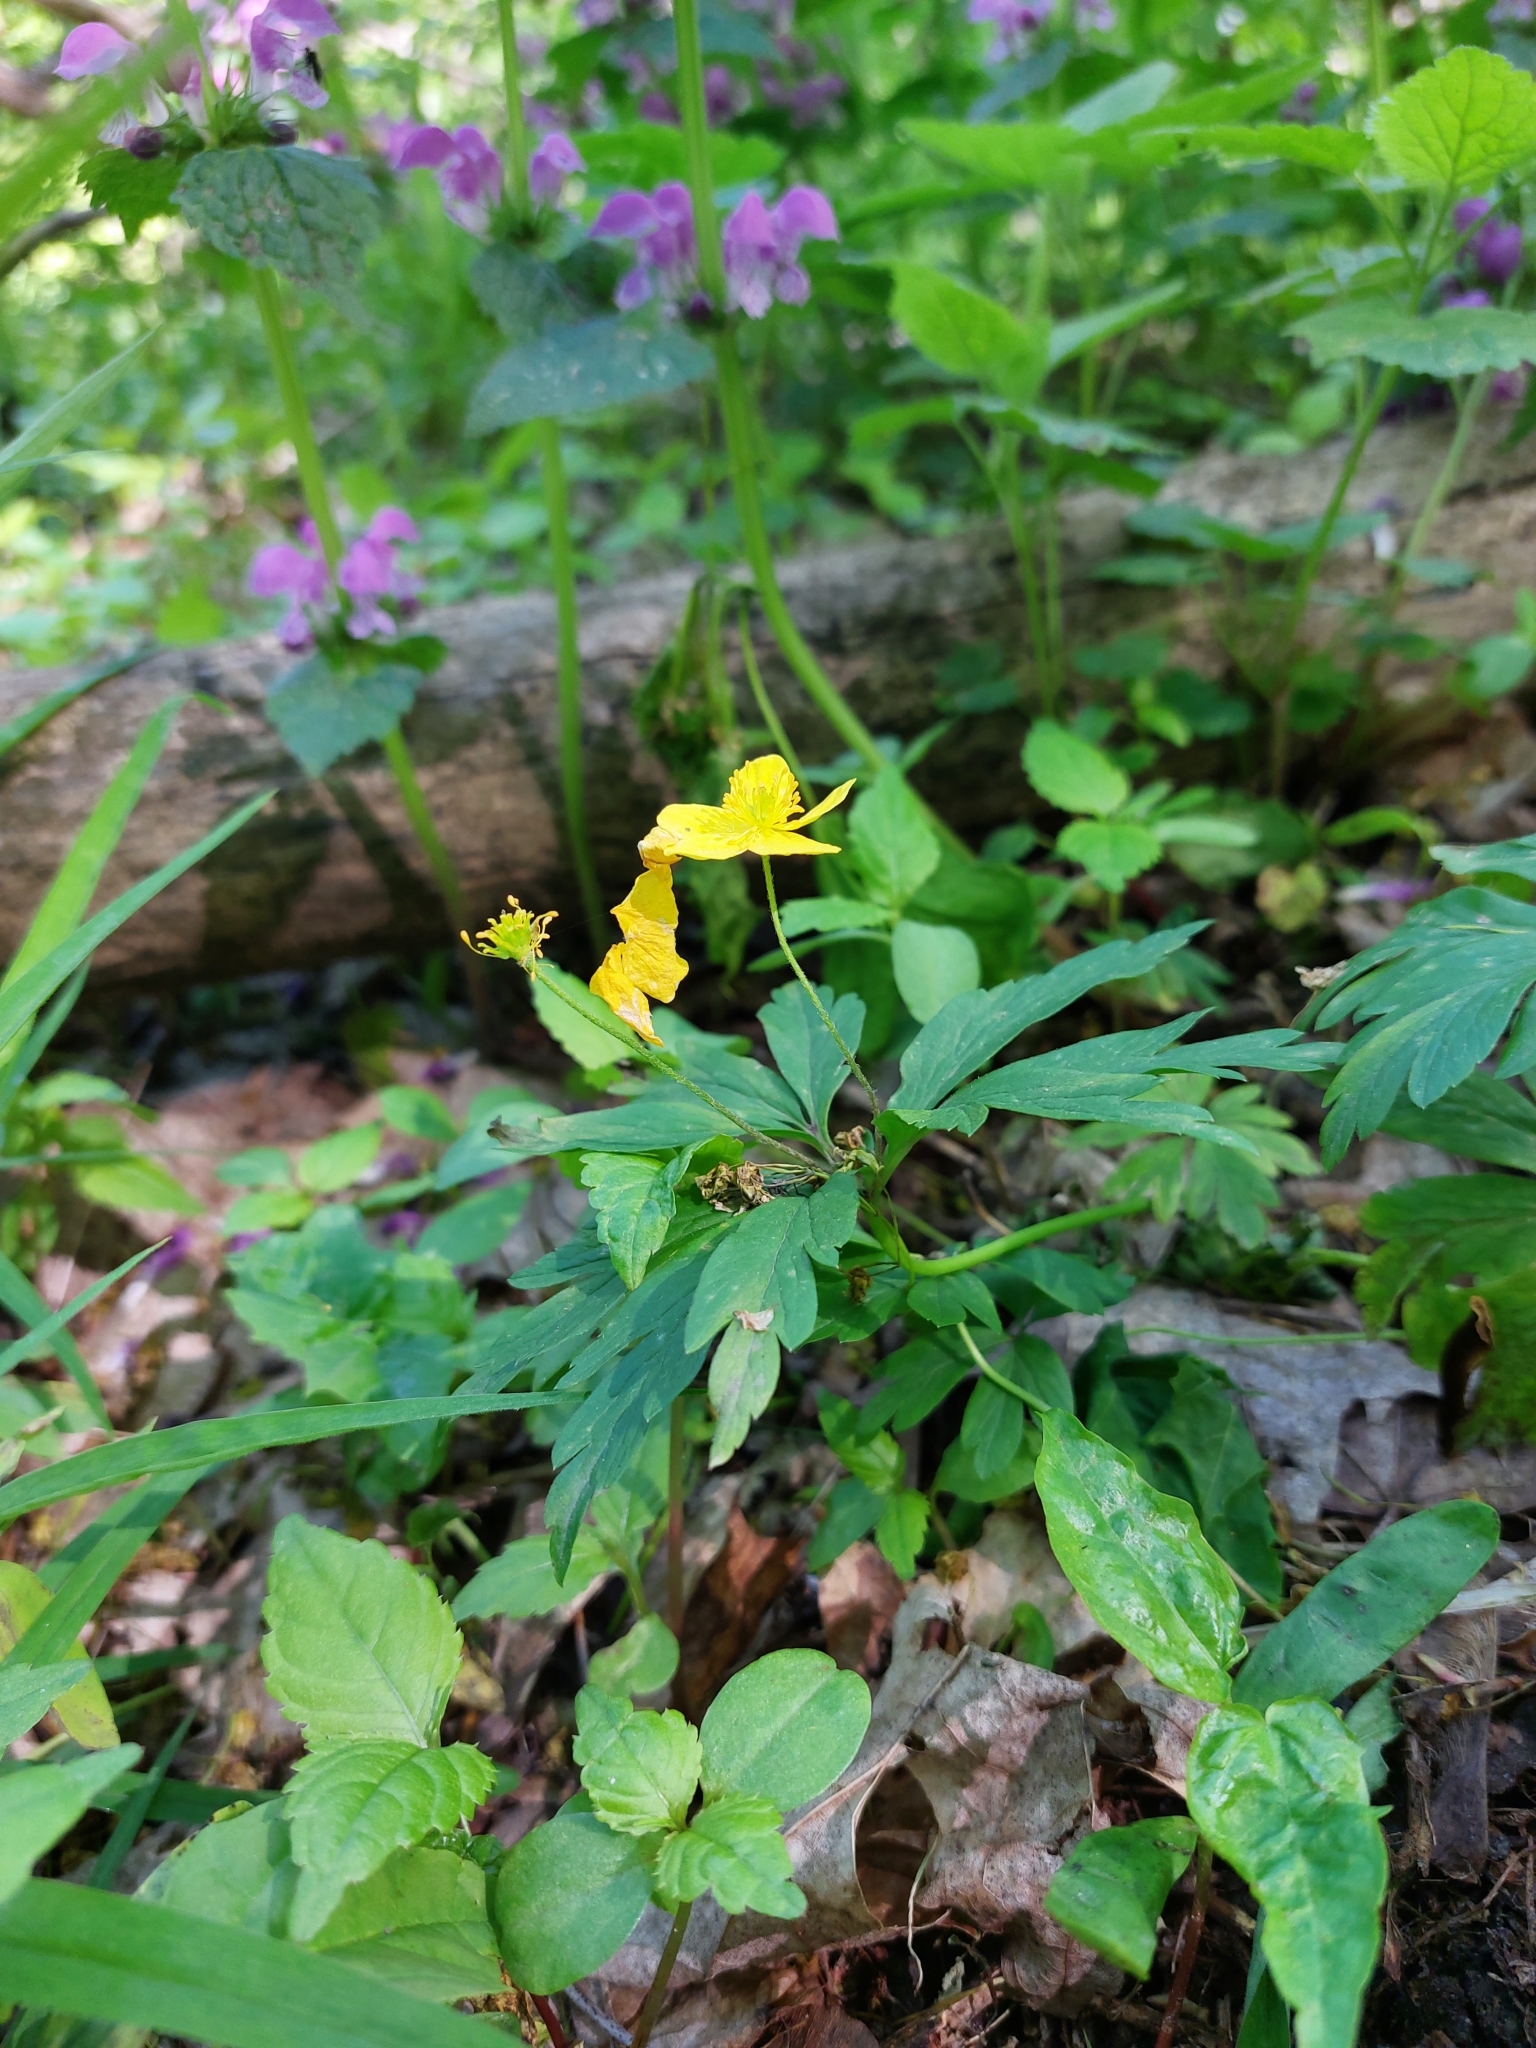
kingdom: Plantae
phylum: Tracheophyta
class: Magnoliopsida
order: Ranunculales
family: Ranunculaceae
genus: Anemone
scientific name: Anemone ranunculoides
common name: Yellow anemone
